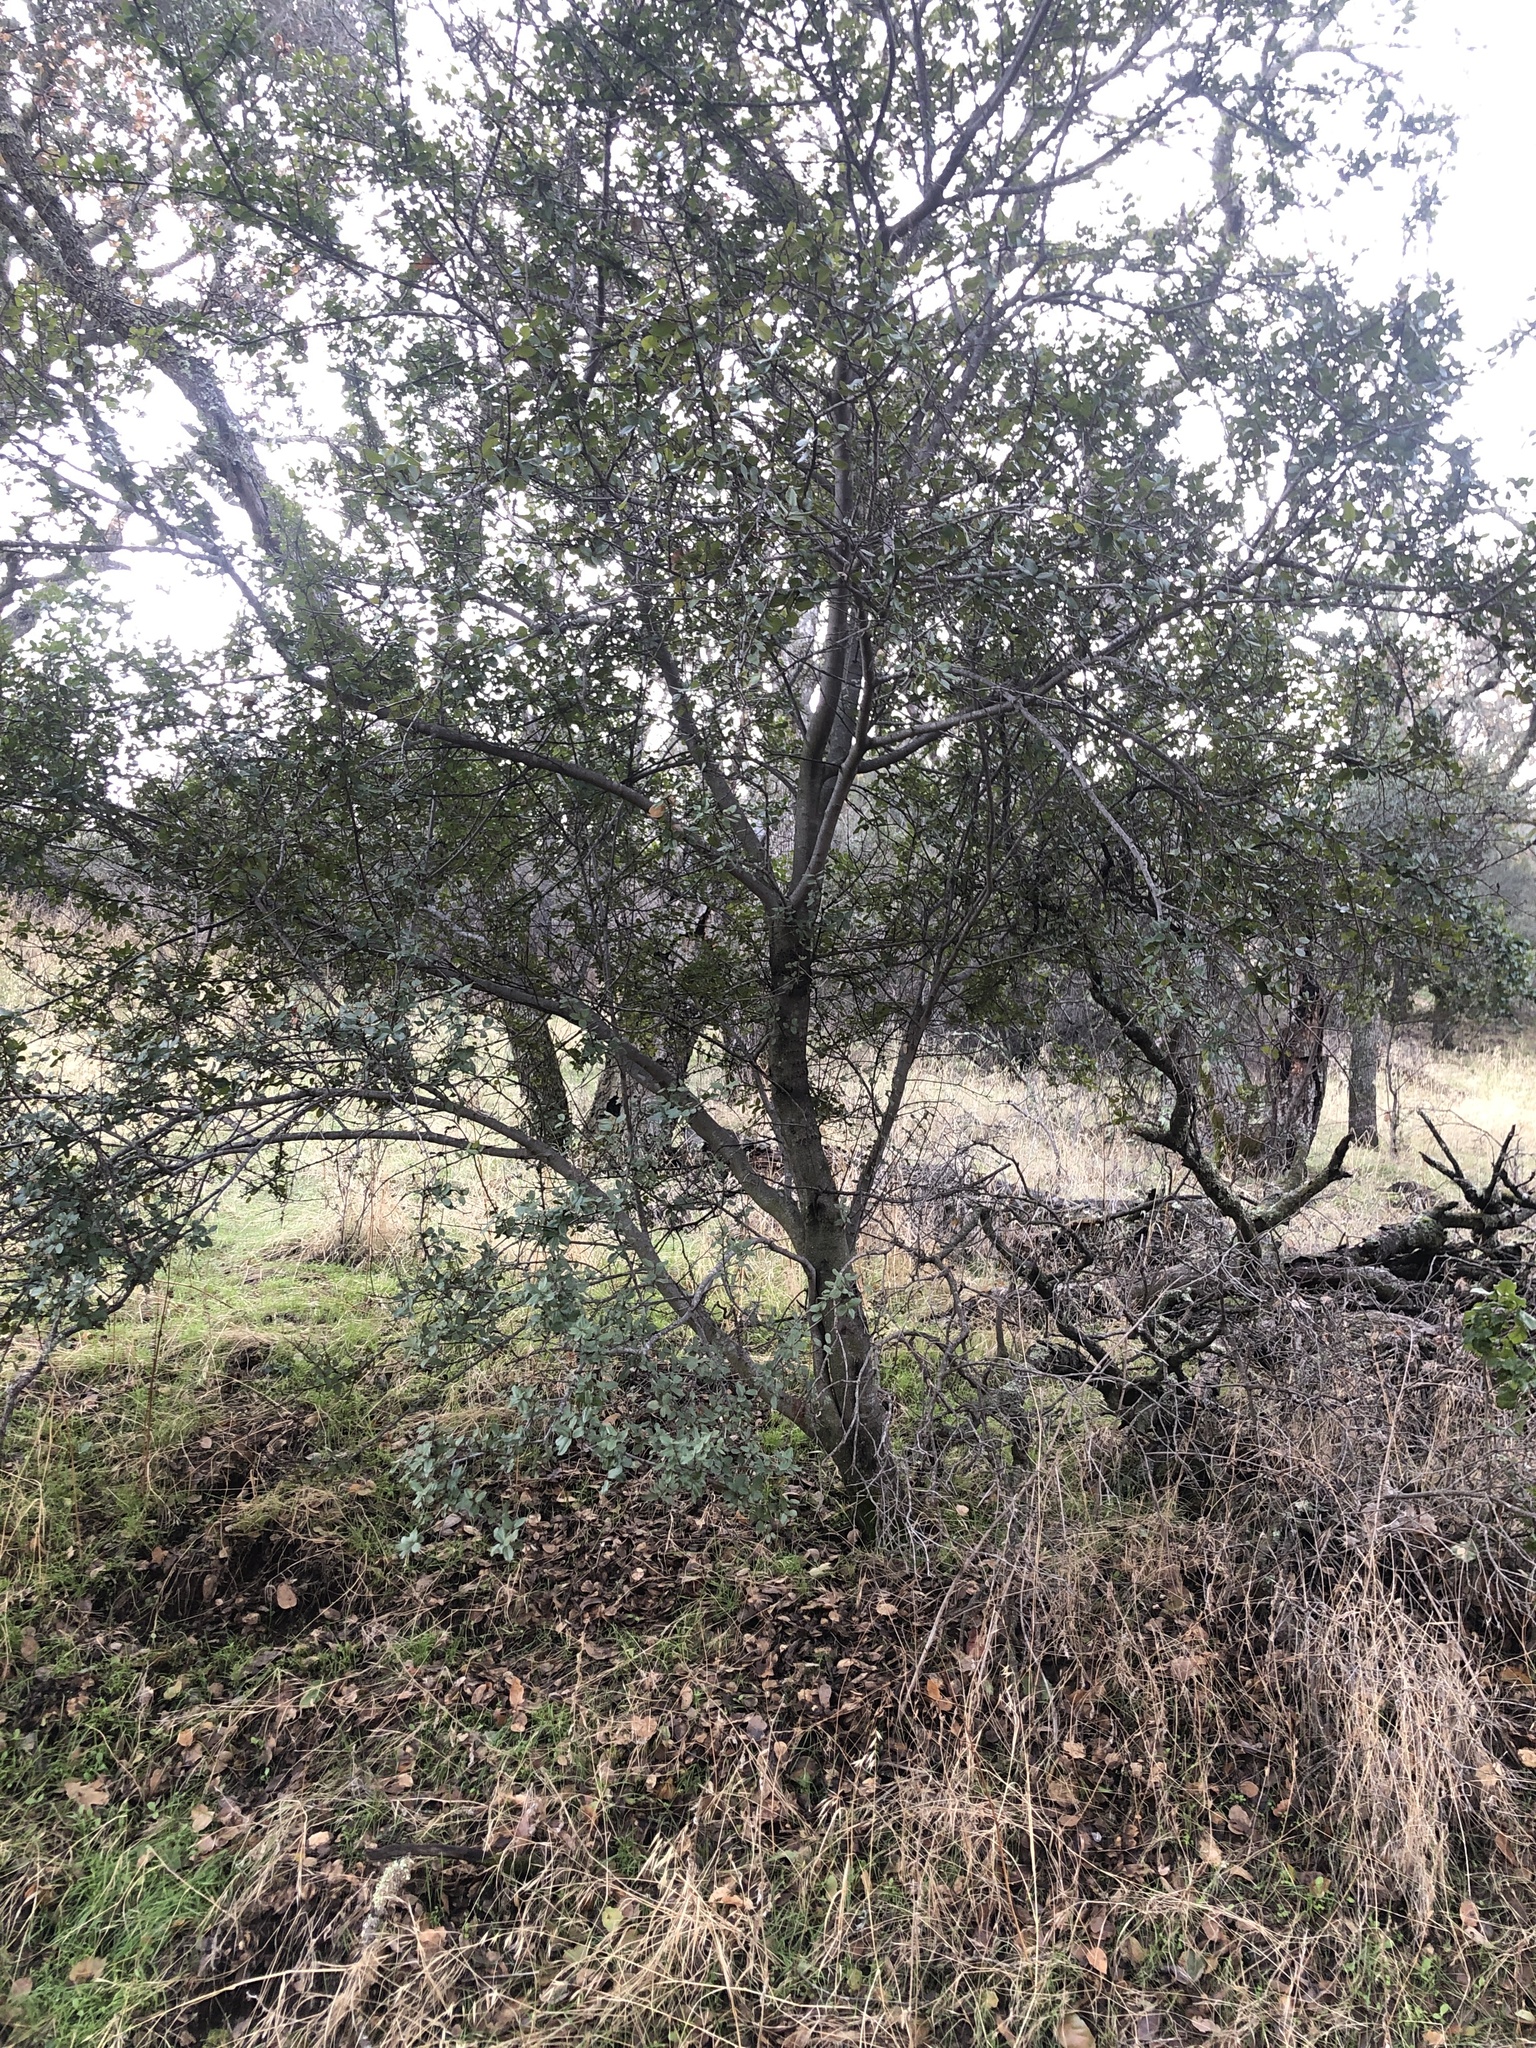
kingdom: Plantae
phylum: Tracheophyta
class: Magnoliopsida
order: Rosales
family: Rhamnaceae
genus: Endotropis
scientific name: Endotropis crocea
